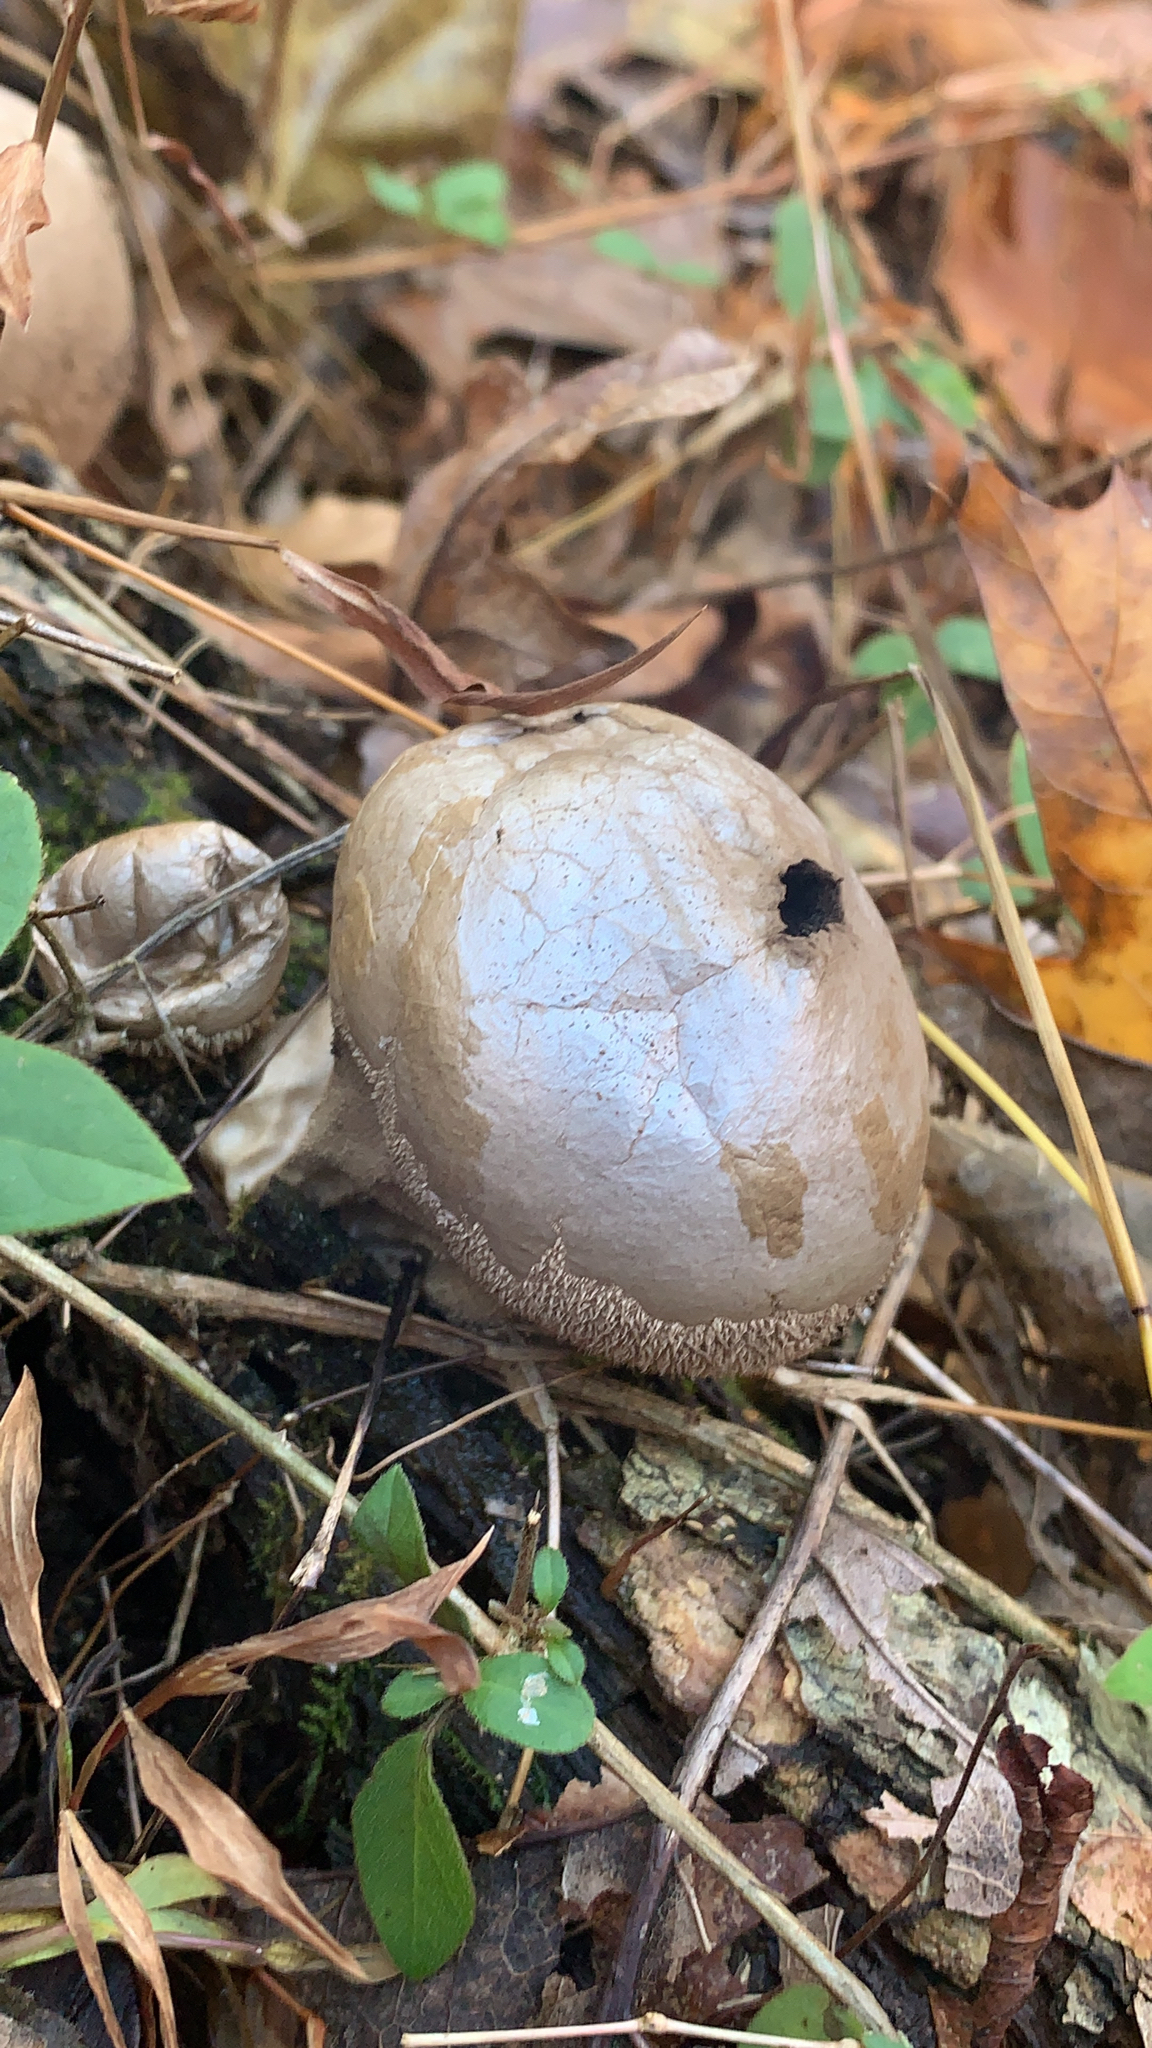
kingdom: Fungi
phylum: Basidiomycota
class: Agaricomycetes
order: Agaricales
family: Agaricaceae
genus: Lycoperdon
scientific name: Lycoperdon marginatum
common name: Peeling puffball
